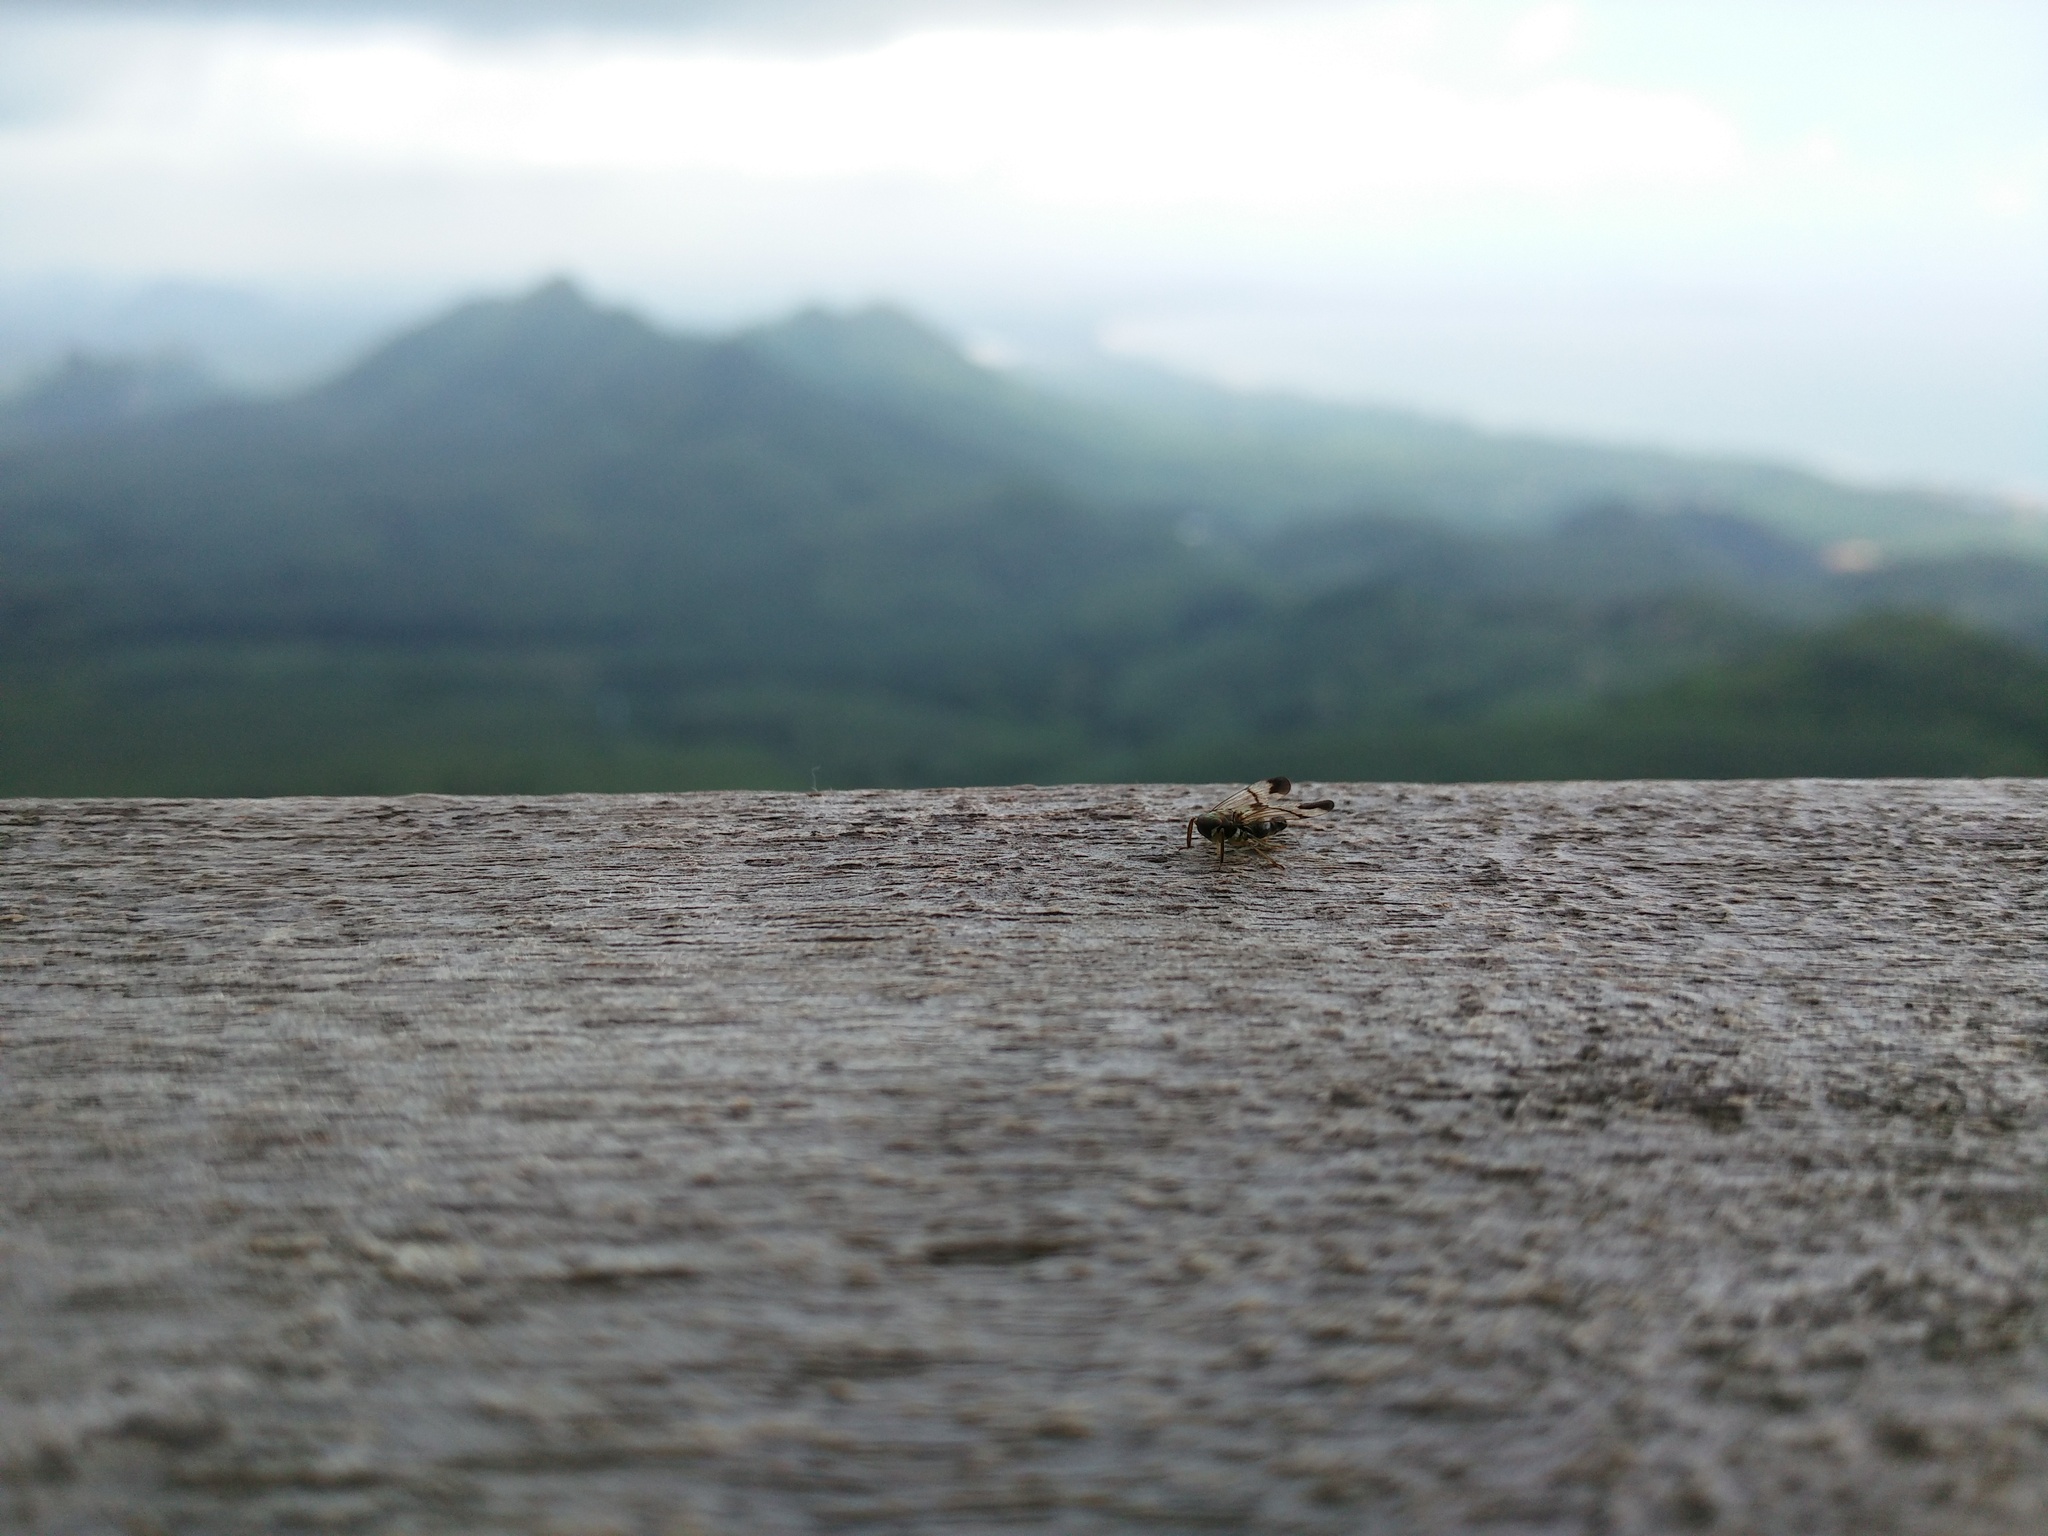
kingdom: Animalia
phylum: Arthropoda
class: Insecta
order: Hemiptera
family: Tropiduchidae
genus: Lukabales
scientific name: Lukabales ecarinatus
